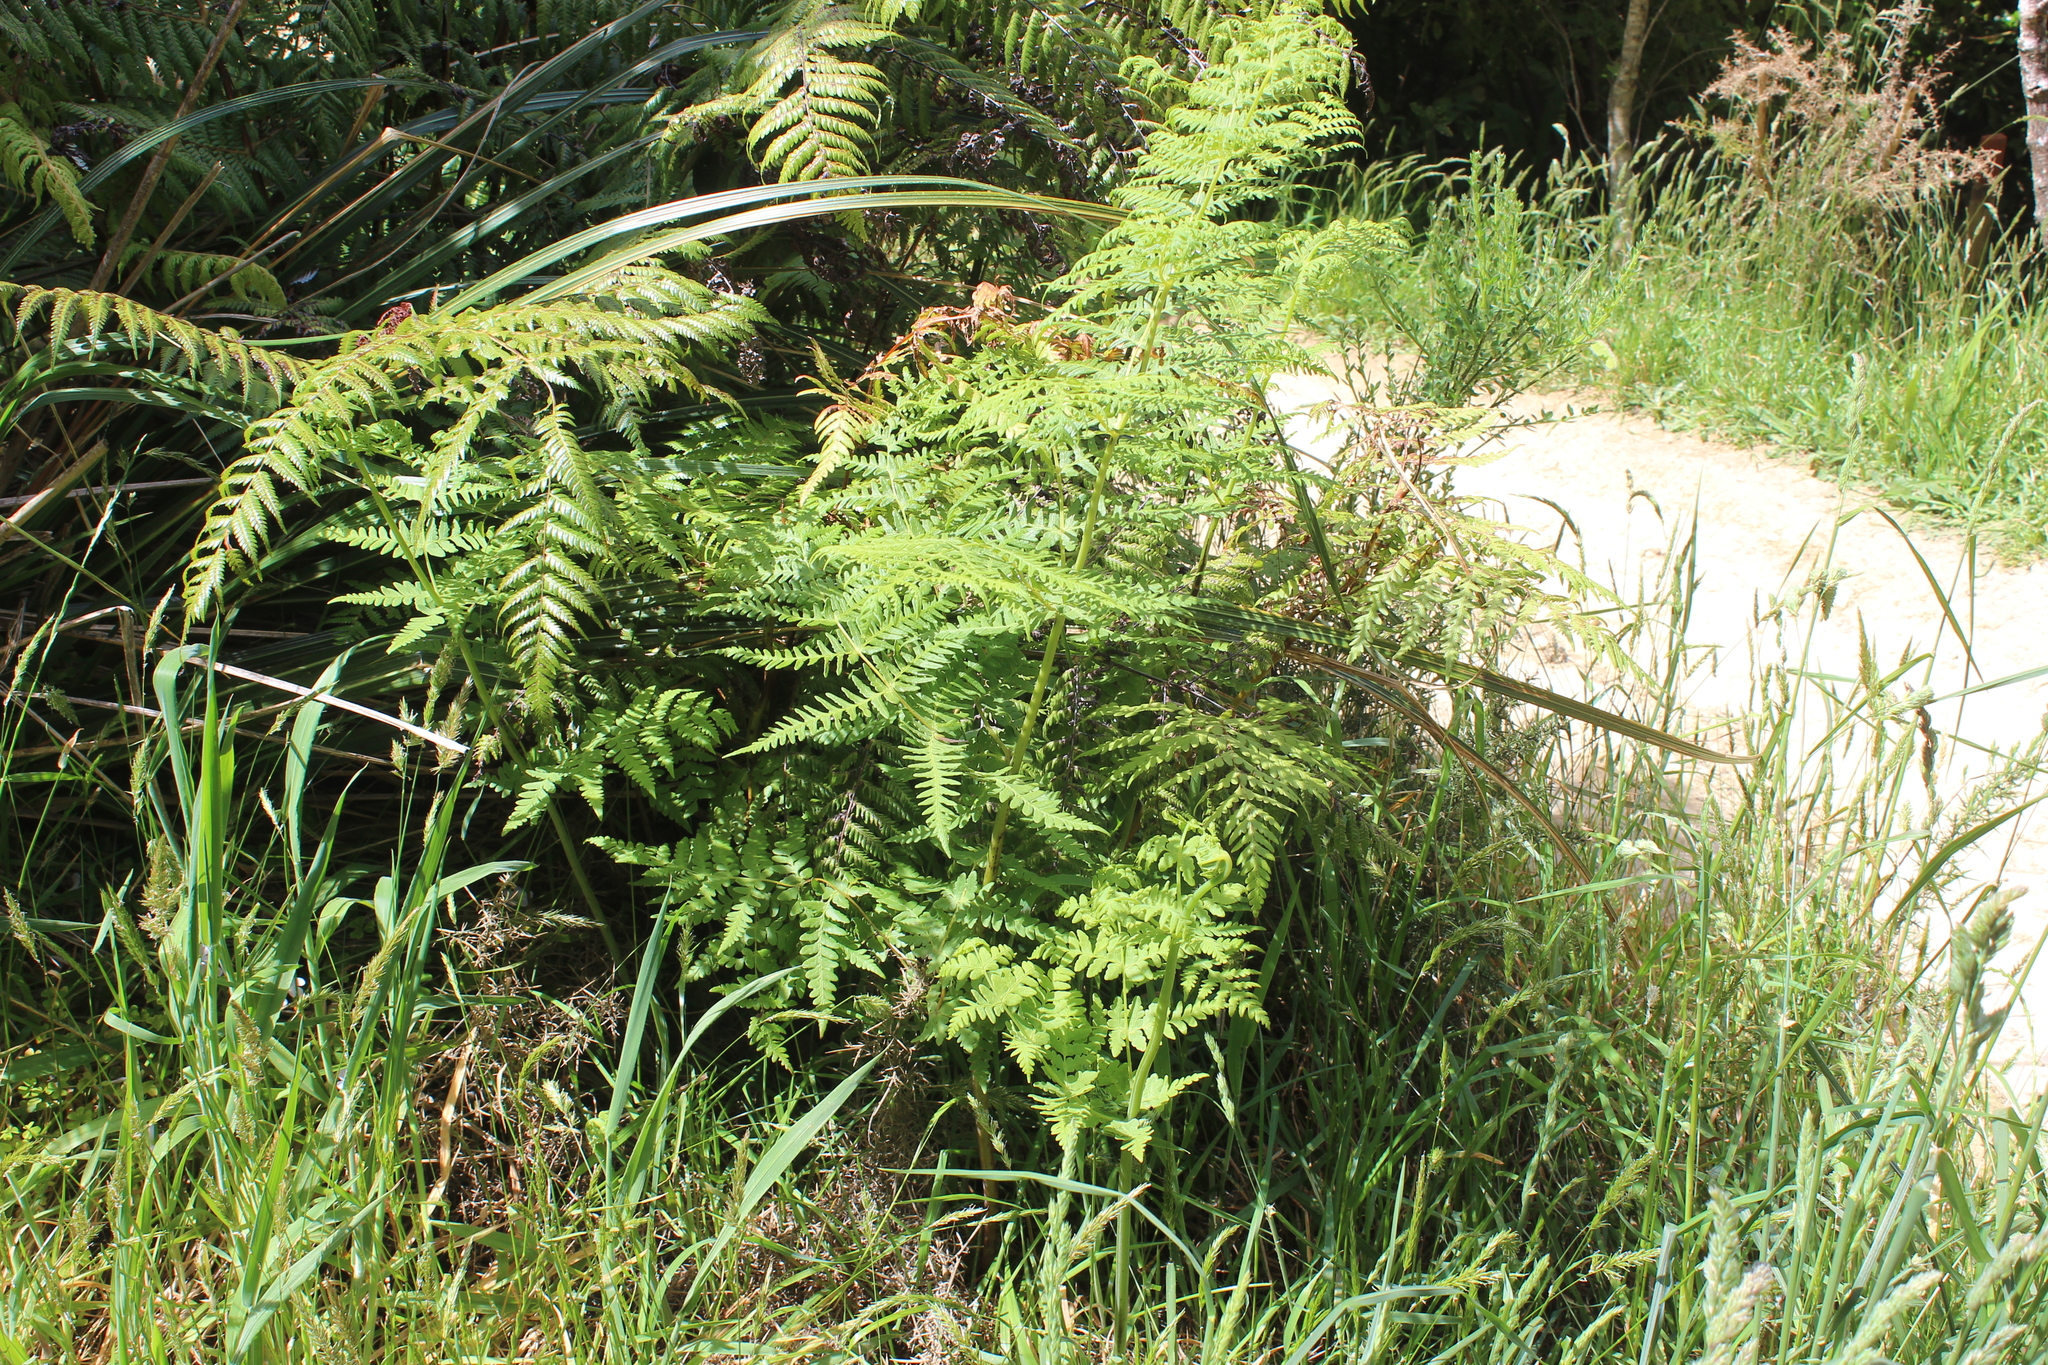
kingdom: Plantae
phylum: Tracheophyta
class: Polypodiopsida
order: Polypodiales
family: Dennstaedtiaceae
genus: Histiopteris
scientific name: Histiopteris incisa
